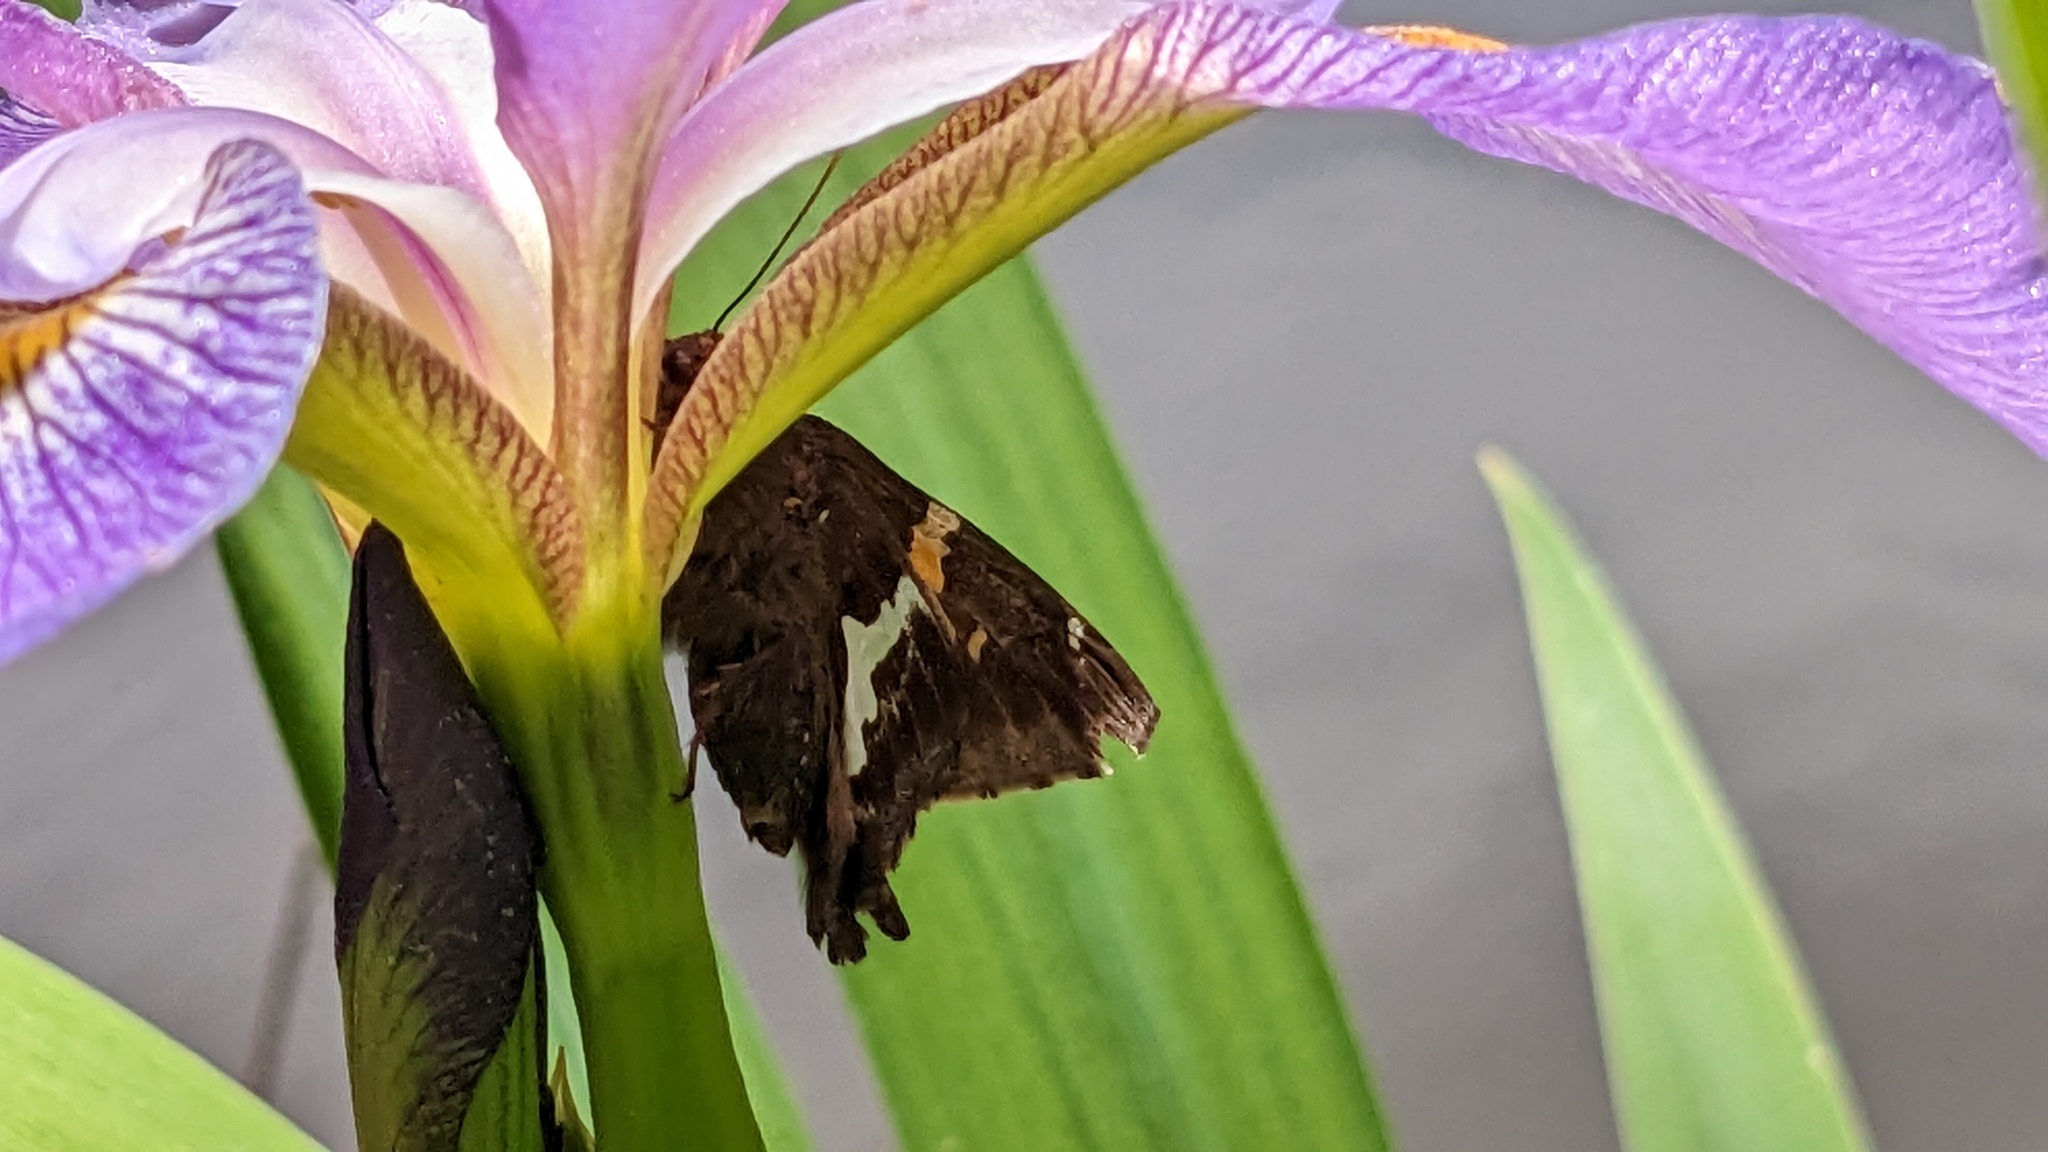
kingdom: Animalia
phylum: Arthropoda
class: Insecta
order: Lepidoptera
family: Hesperiidae
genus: Epargyreus
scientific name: Epargyreus clarus
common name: Silver-spotted skipper
